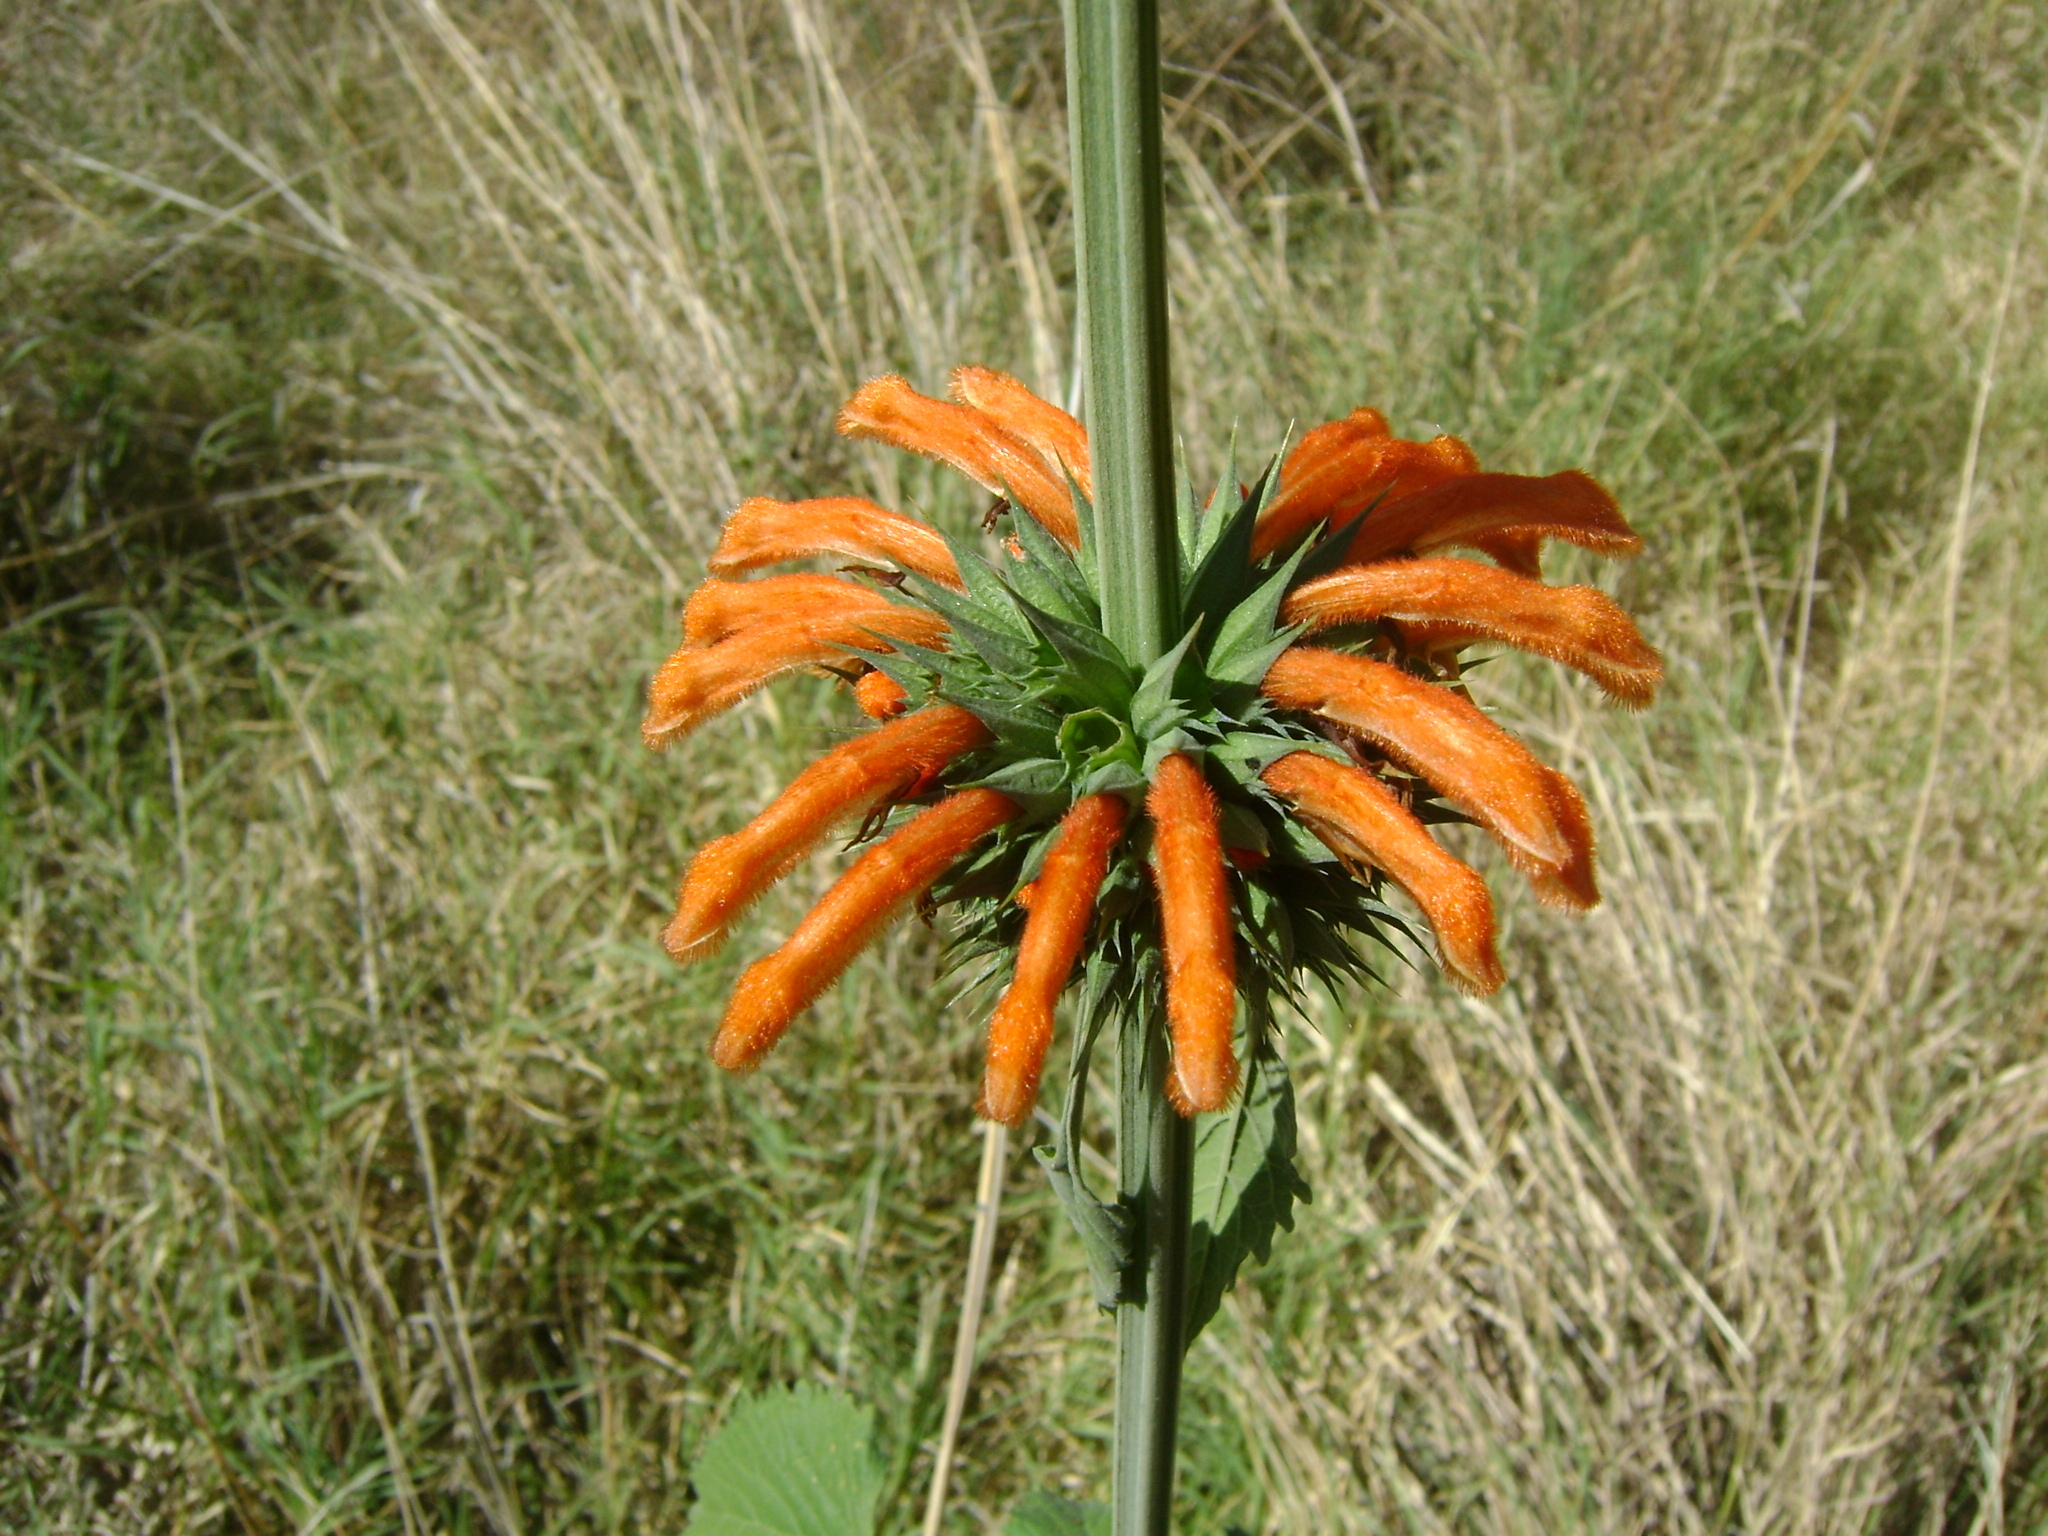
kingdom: Plantae
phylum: Tracheophyta
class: Magnoliopsida
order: Lamiales
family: Lamiaceae
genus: Leonotis
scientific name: Leonotis nepetifolia
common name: Christmas candlestick
